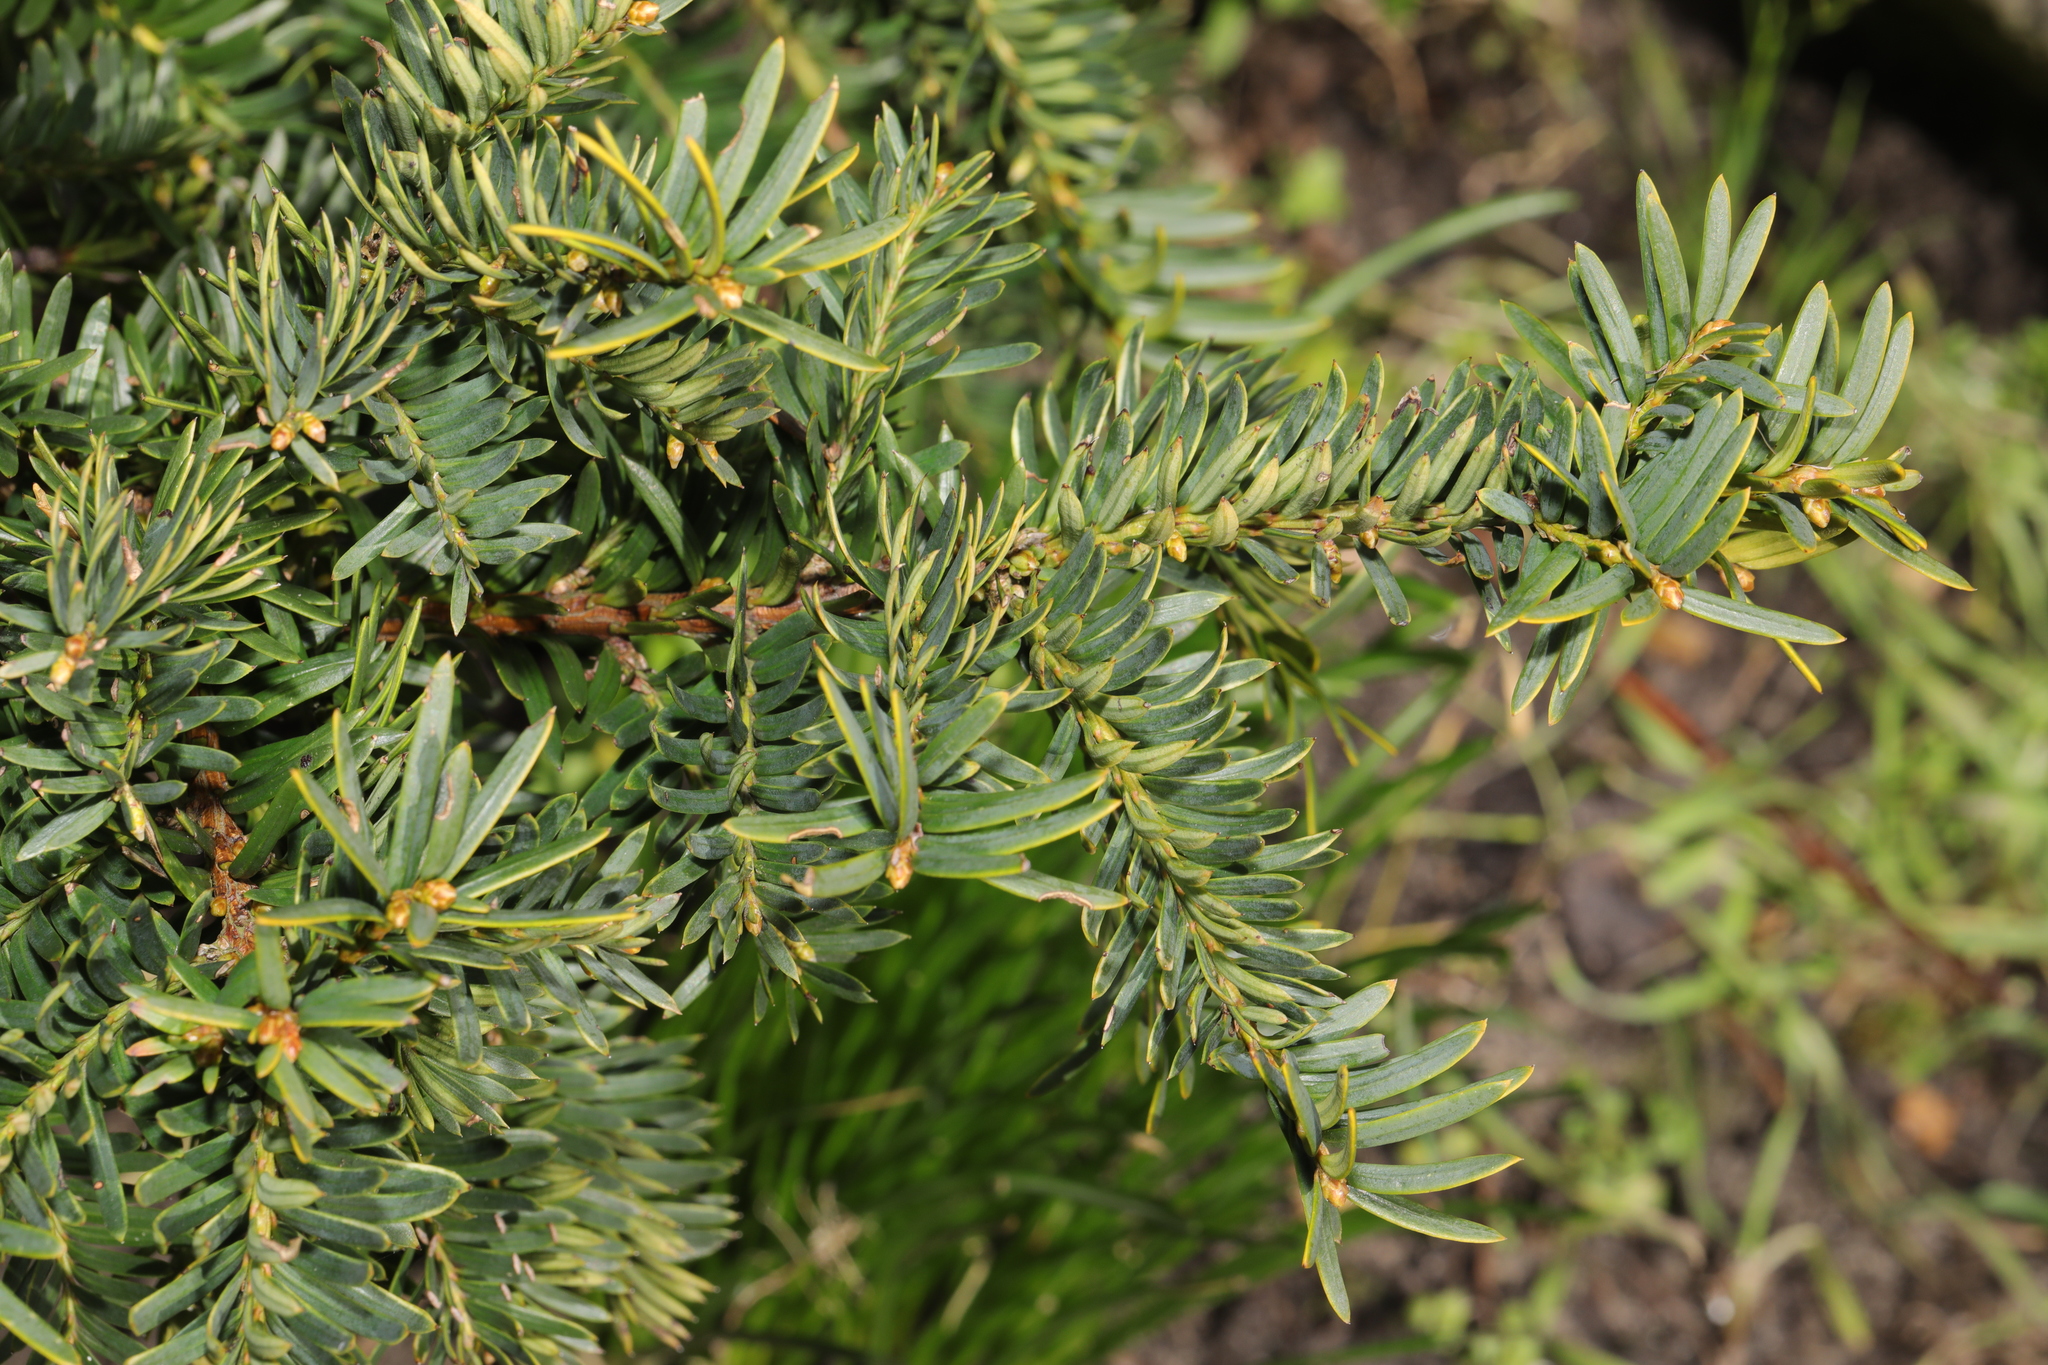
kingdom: Plantae
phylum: Tracheophyta
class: Pinopsida
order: Pinales
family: Taxaceae
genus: Taxus
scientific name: Taxus baccata
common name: Yew
